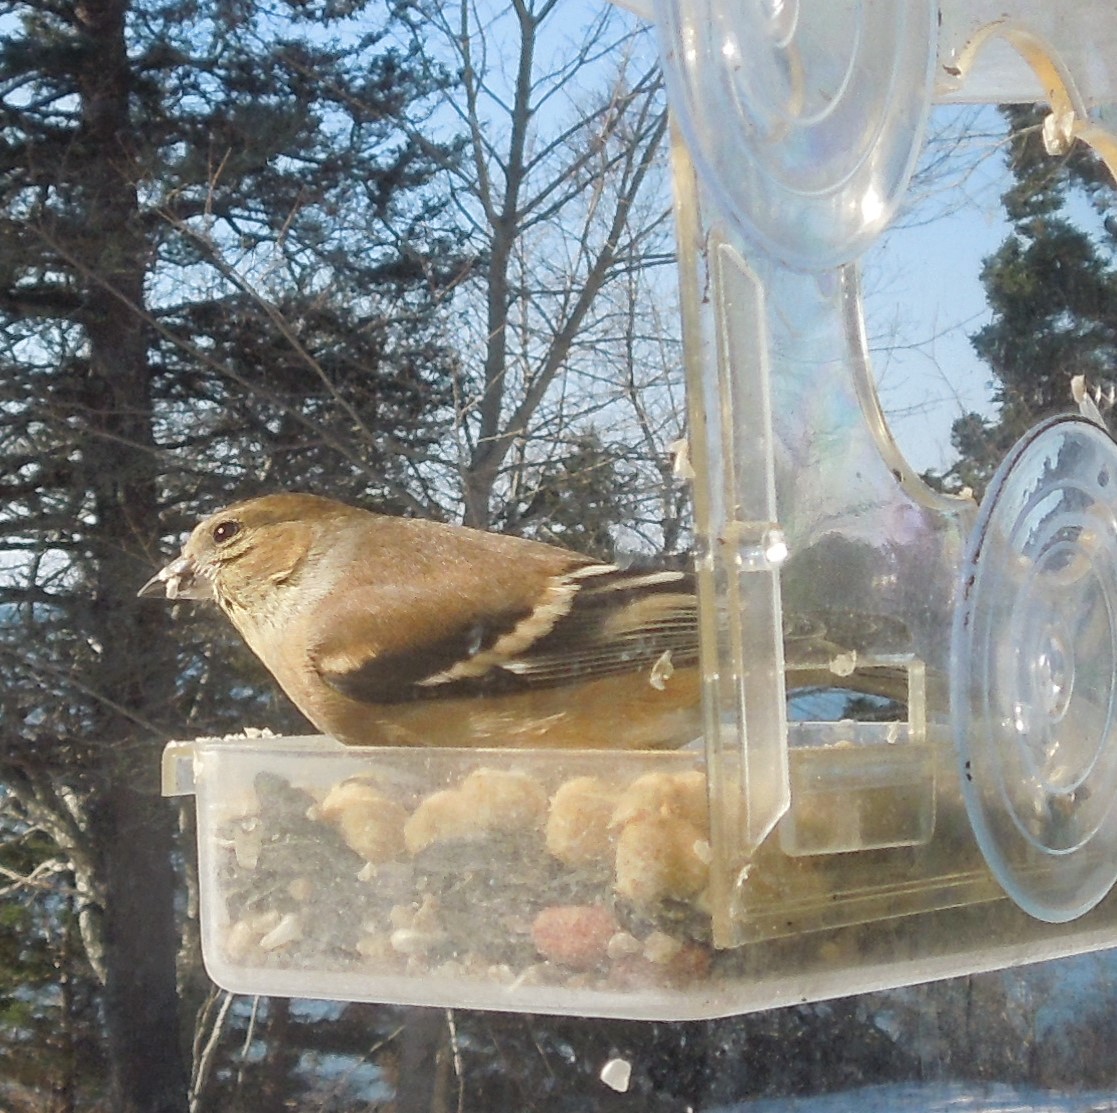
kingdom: Animalia
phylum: Chordata
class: Aves
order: Passeriformes
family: Fringillidae
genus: Spinus
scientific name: Spinus tristis
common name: American goldfinch
